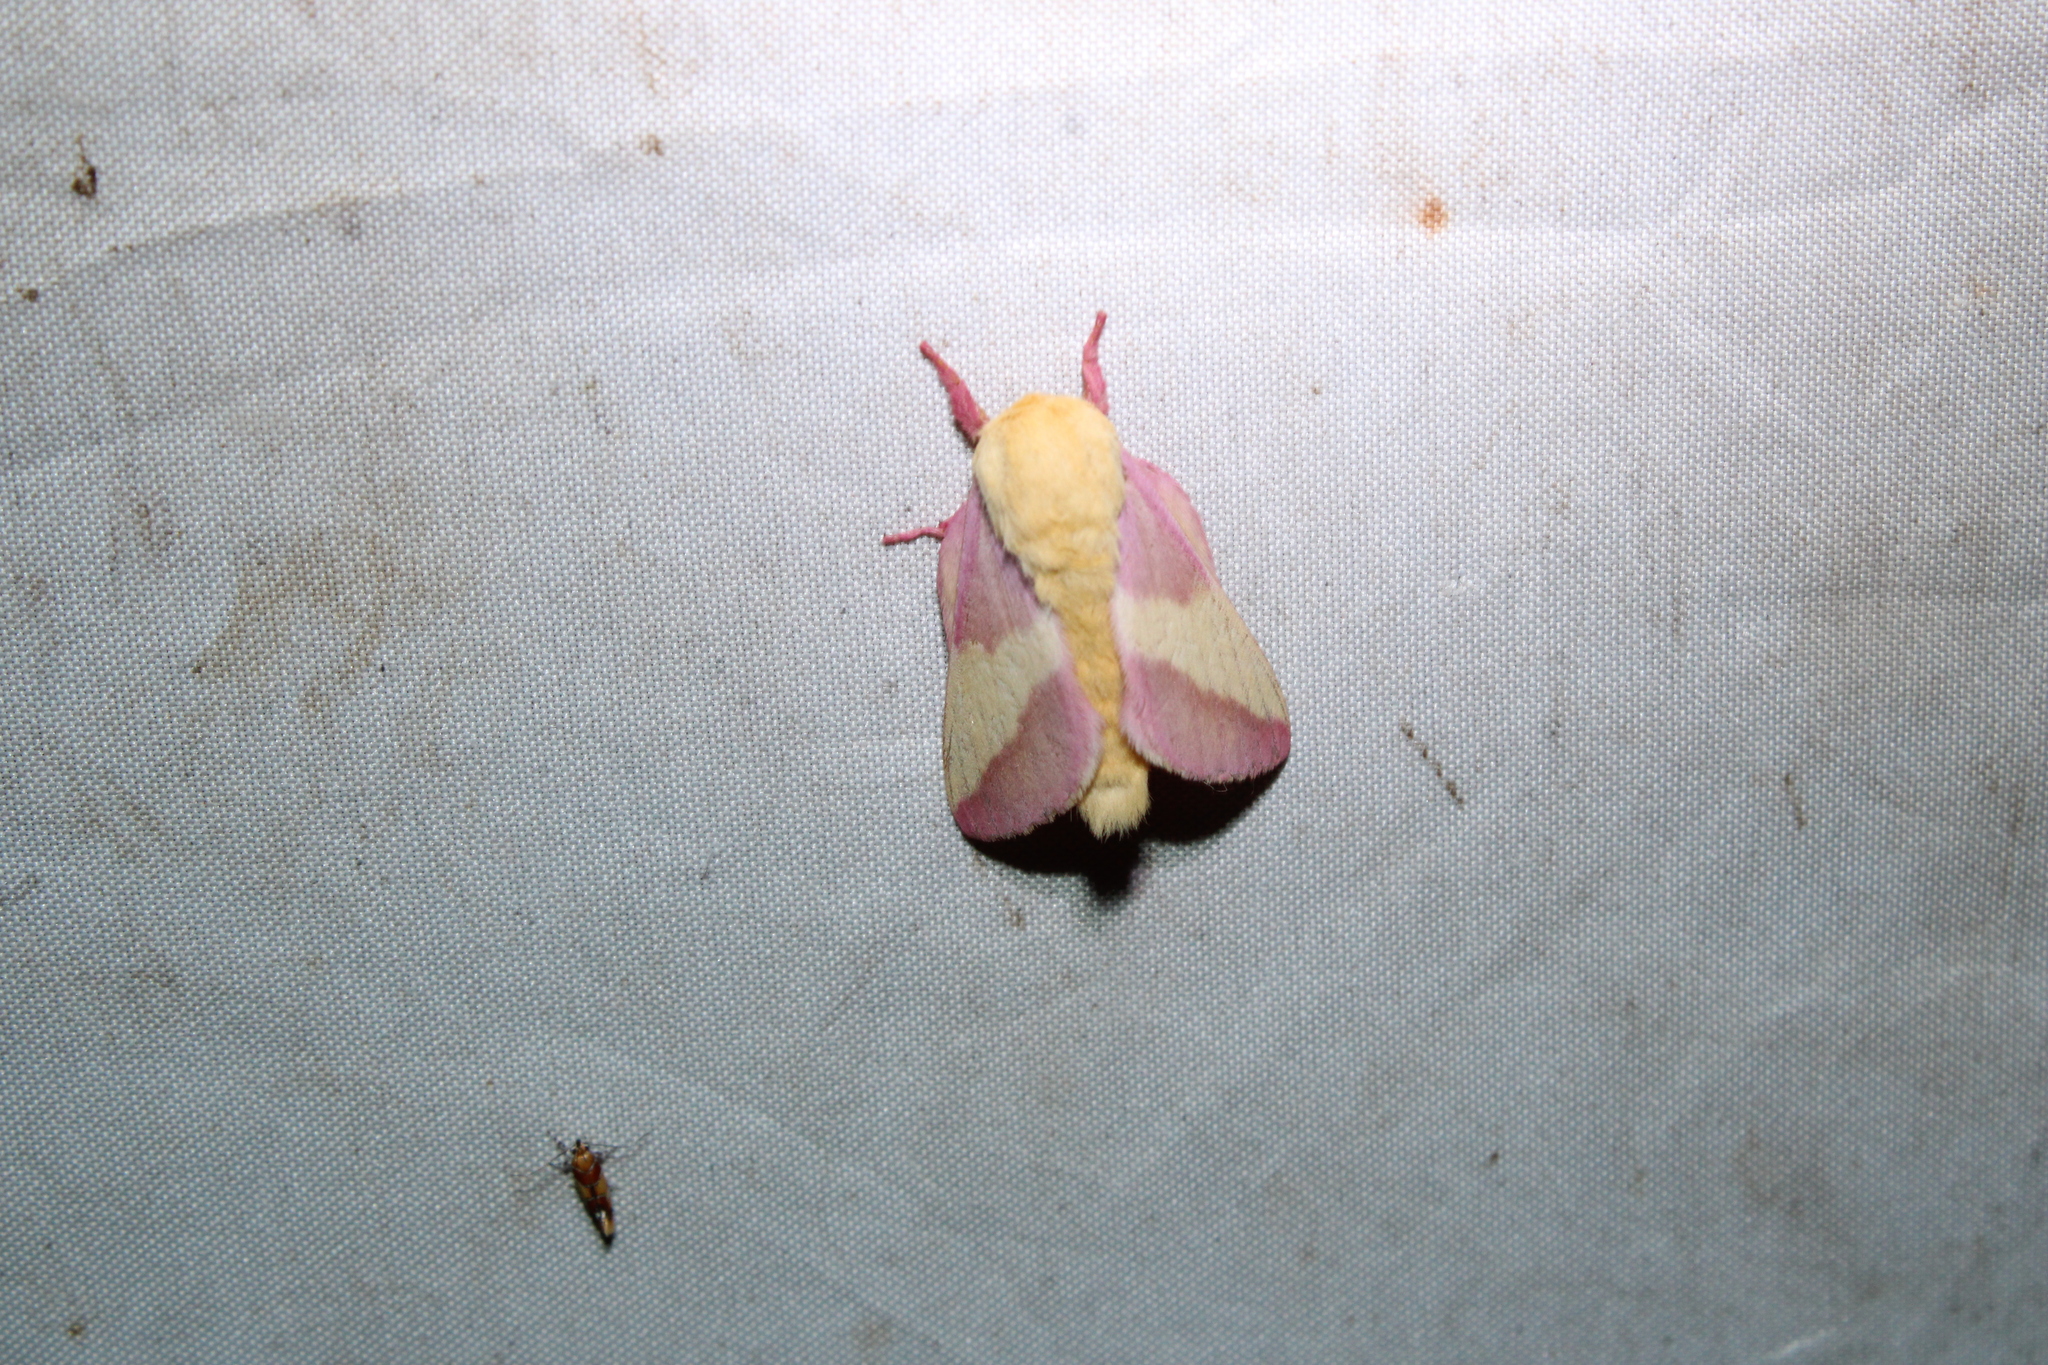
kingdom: Animalia
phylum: Arthropoda
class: Insecta
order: Lepidoptera
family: Saturniidae
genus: Dryocampa
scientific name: Dryocampa rubicunda
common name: Rosy maple moth
